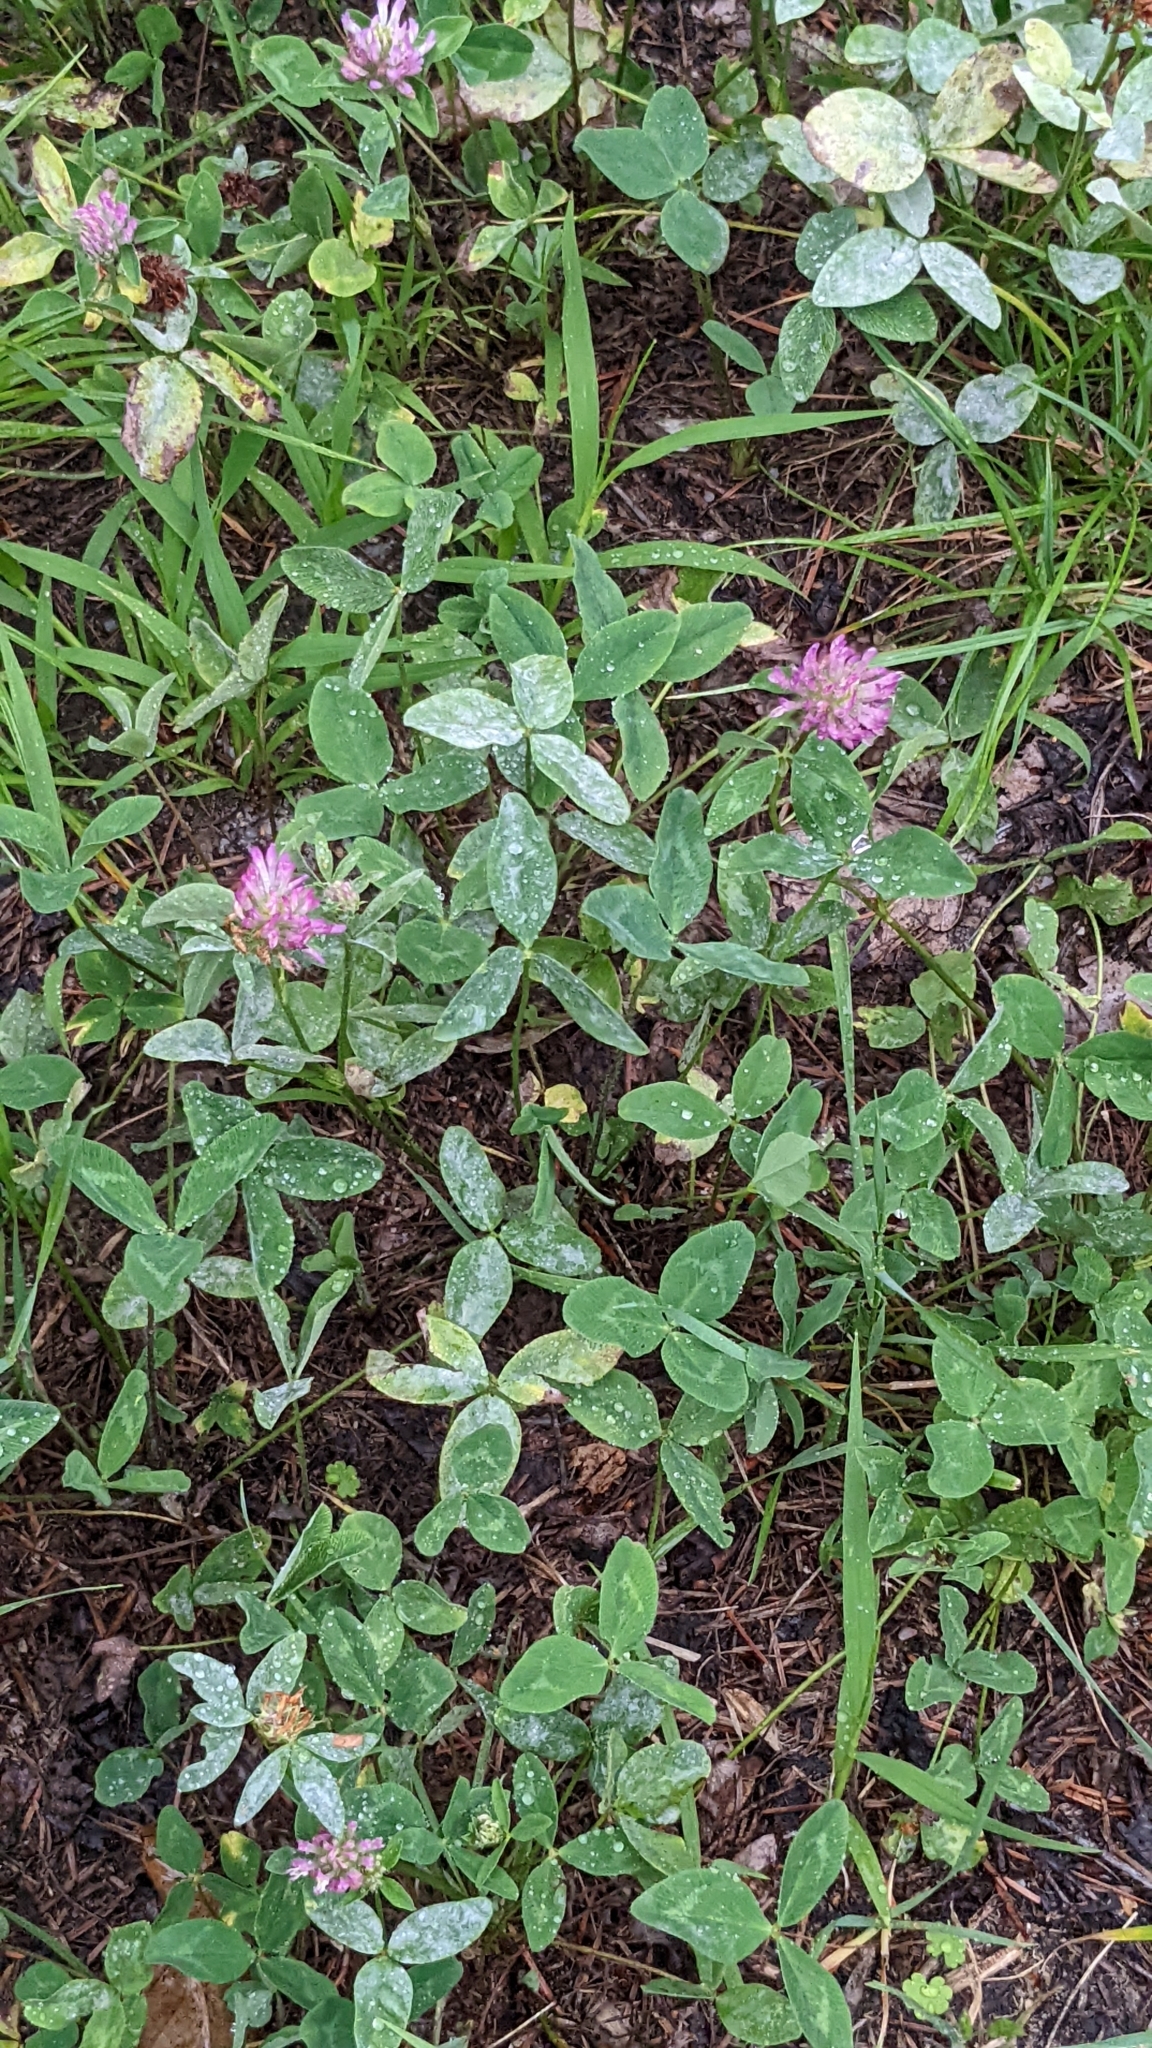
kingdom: Plantae
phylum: Tracheophyta
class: Magnoliopsida
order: Fabales
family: Fabaceae
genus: Trifolium
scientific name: Trifolium pratense
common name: Red clover
